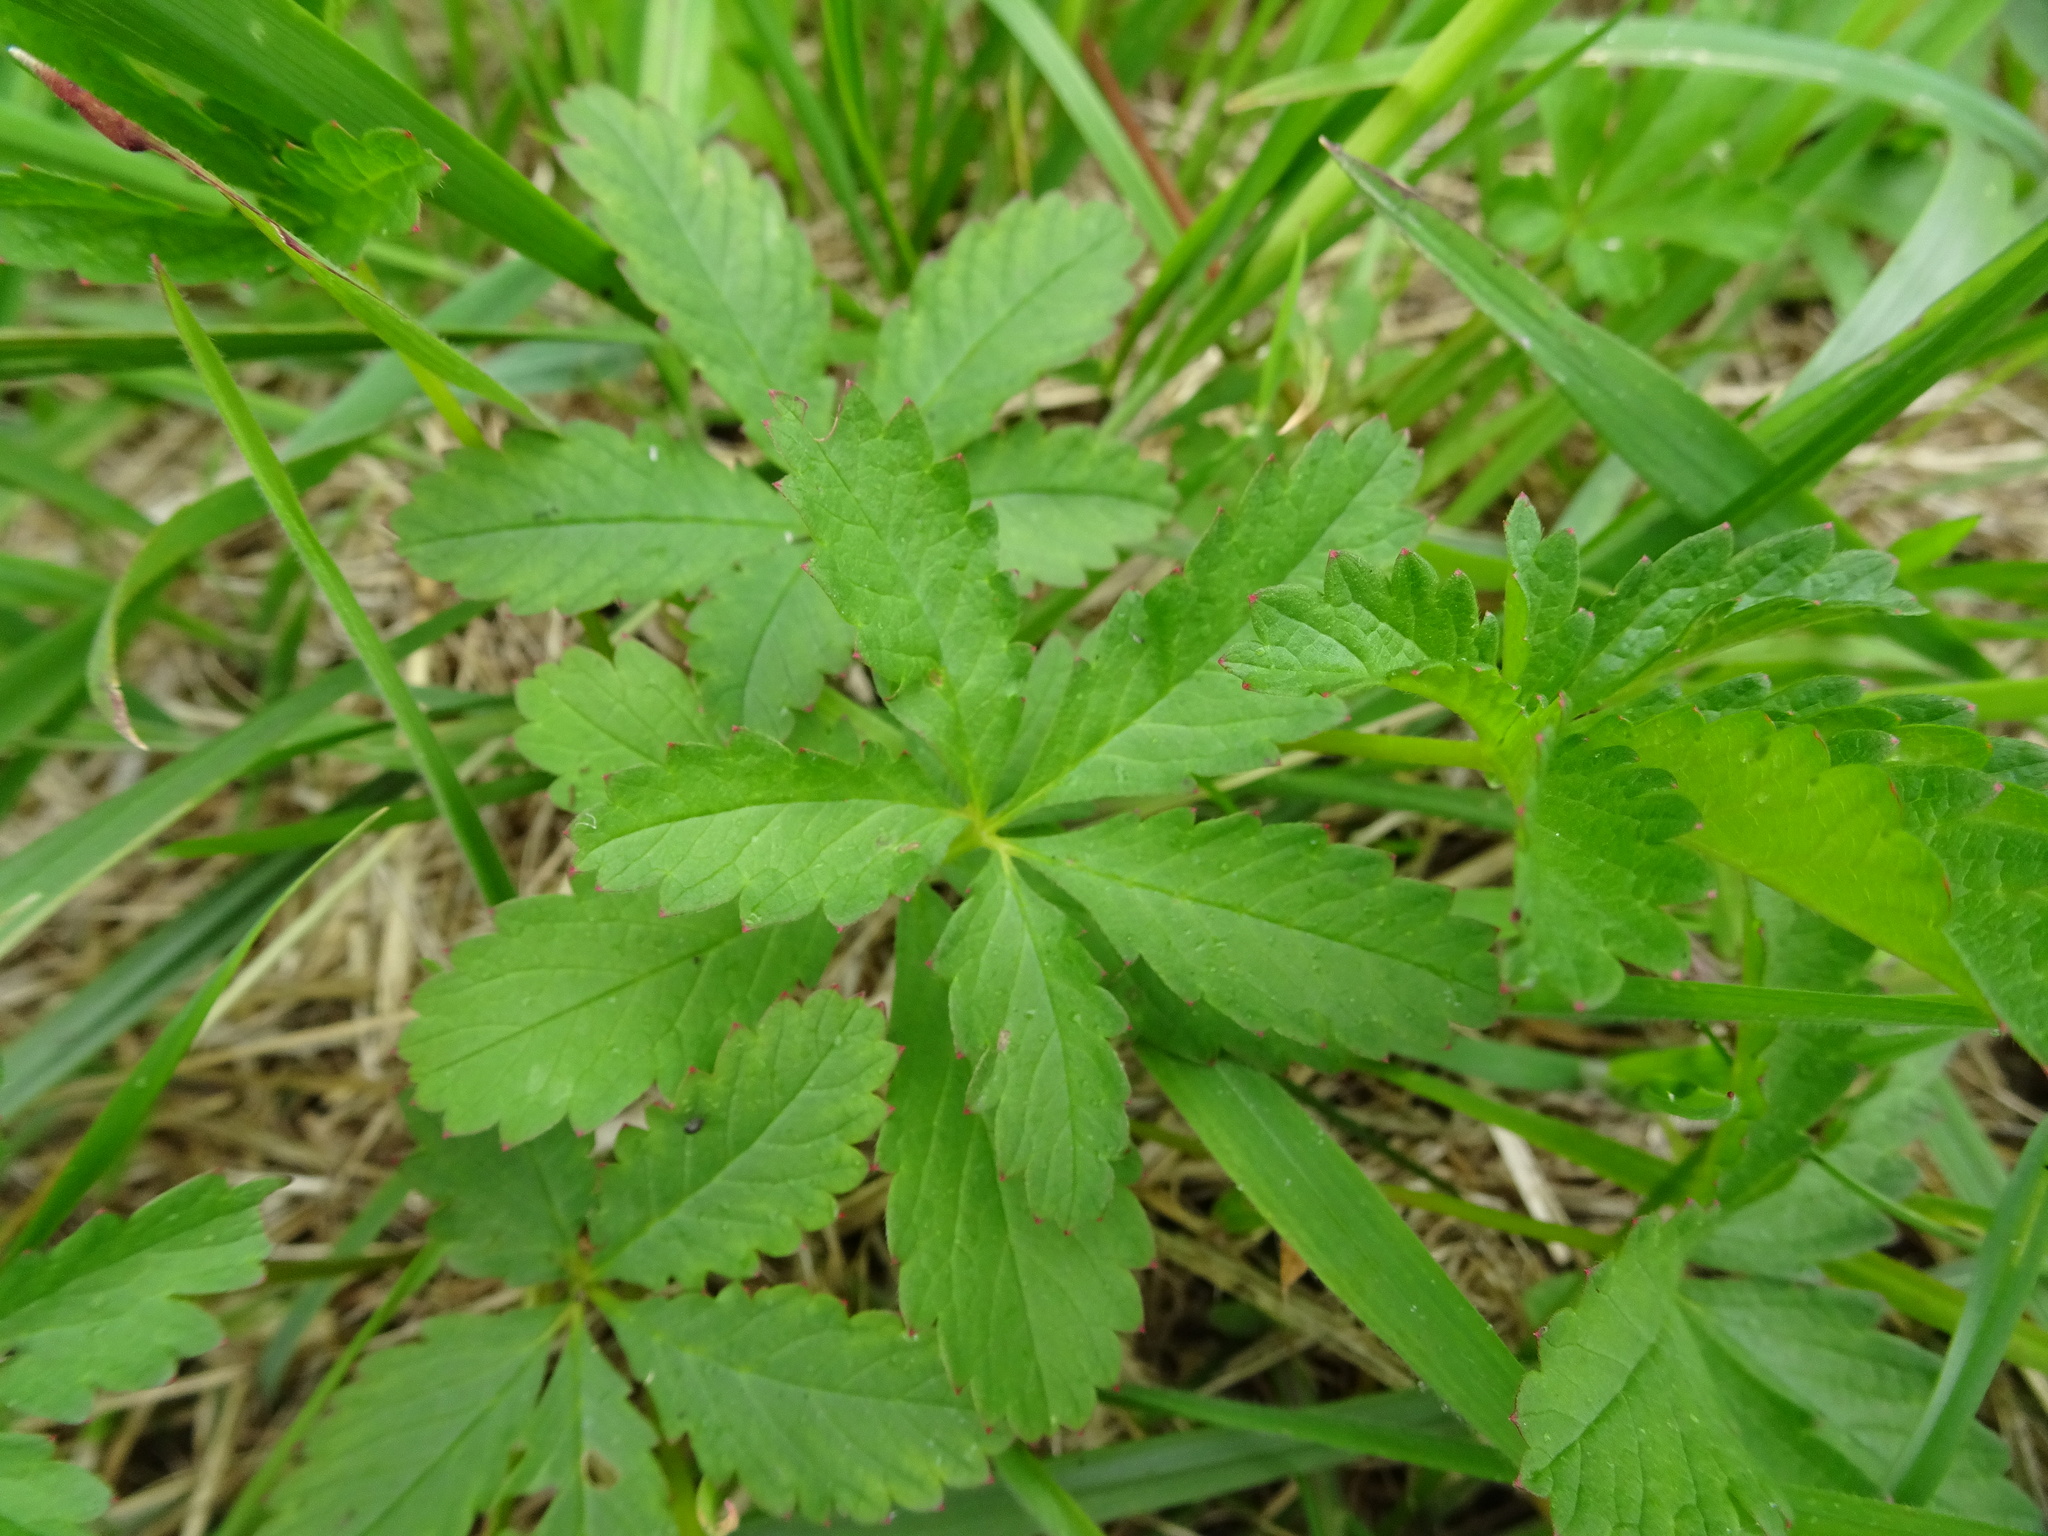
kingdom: Plantae
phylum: Tracheophyta
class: Magnoliopsida
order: Rosales
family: Rosaceae
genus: Potentilla
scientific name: Potentilla reptans
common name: Creeping cinquefoil
